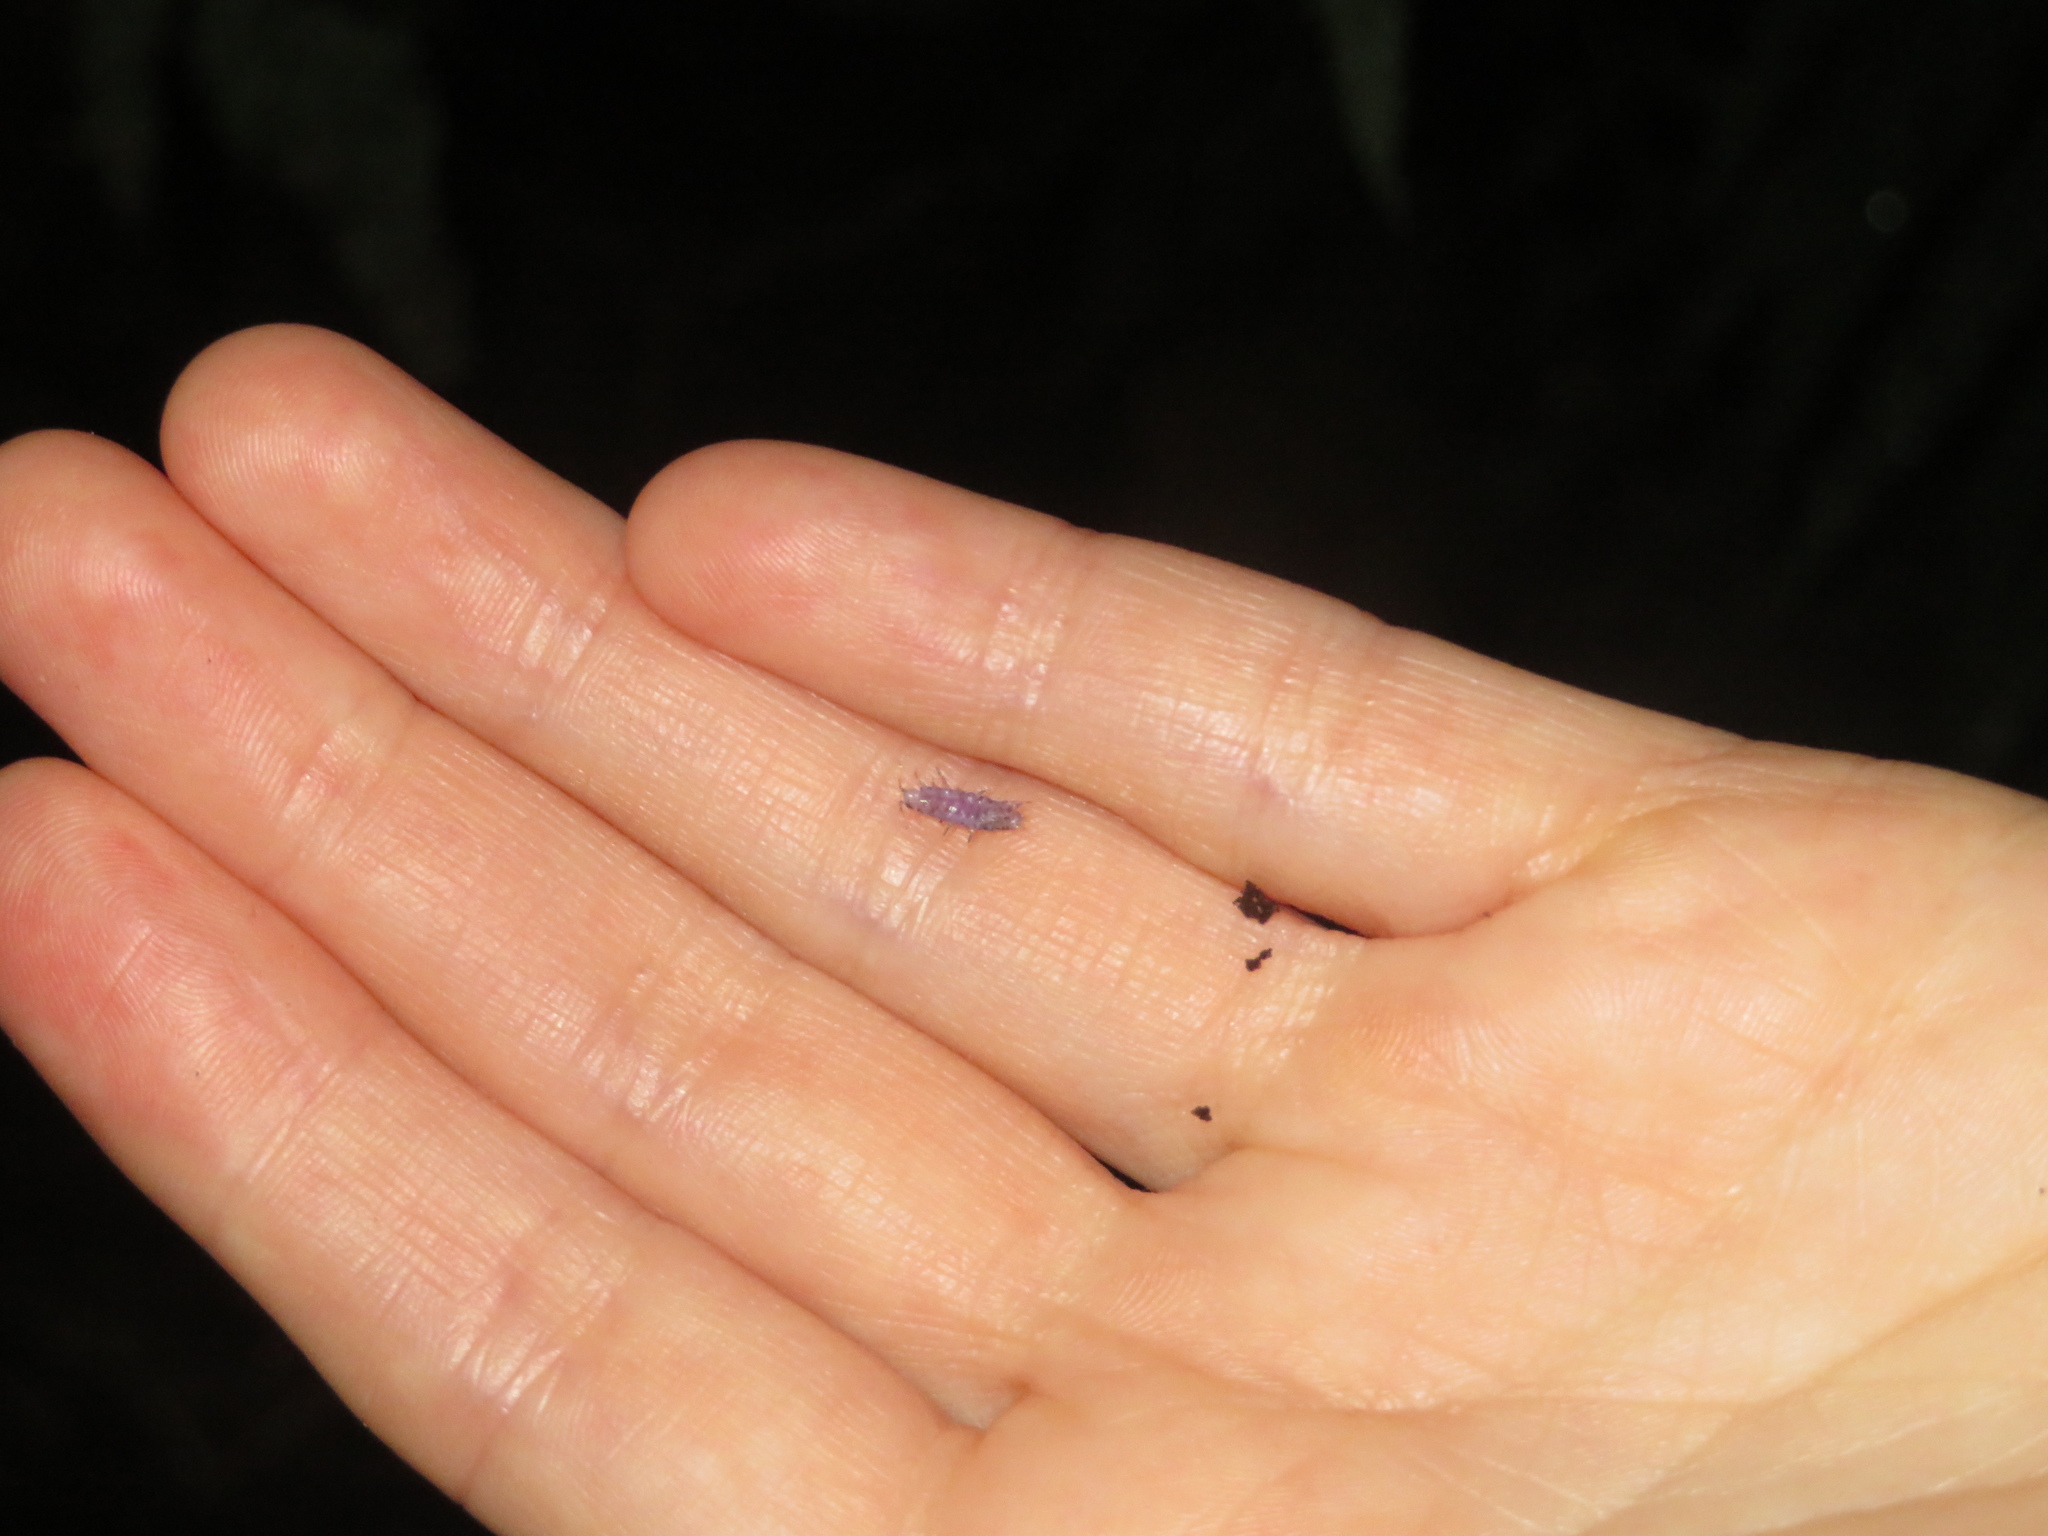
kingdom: Viruses
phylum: Nucleocytoviricota
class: Megaviricetes
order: Pimascovirales
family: Iridoviridae
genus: Iridovirus
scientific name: Iridovirus Invertebrate iridescent virus 31
